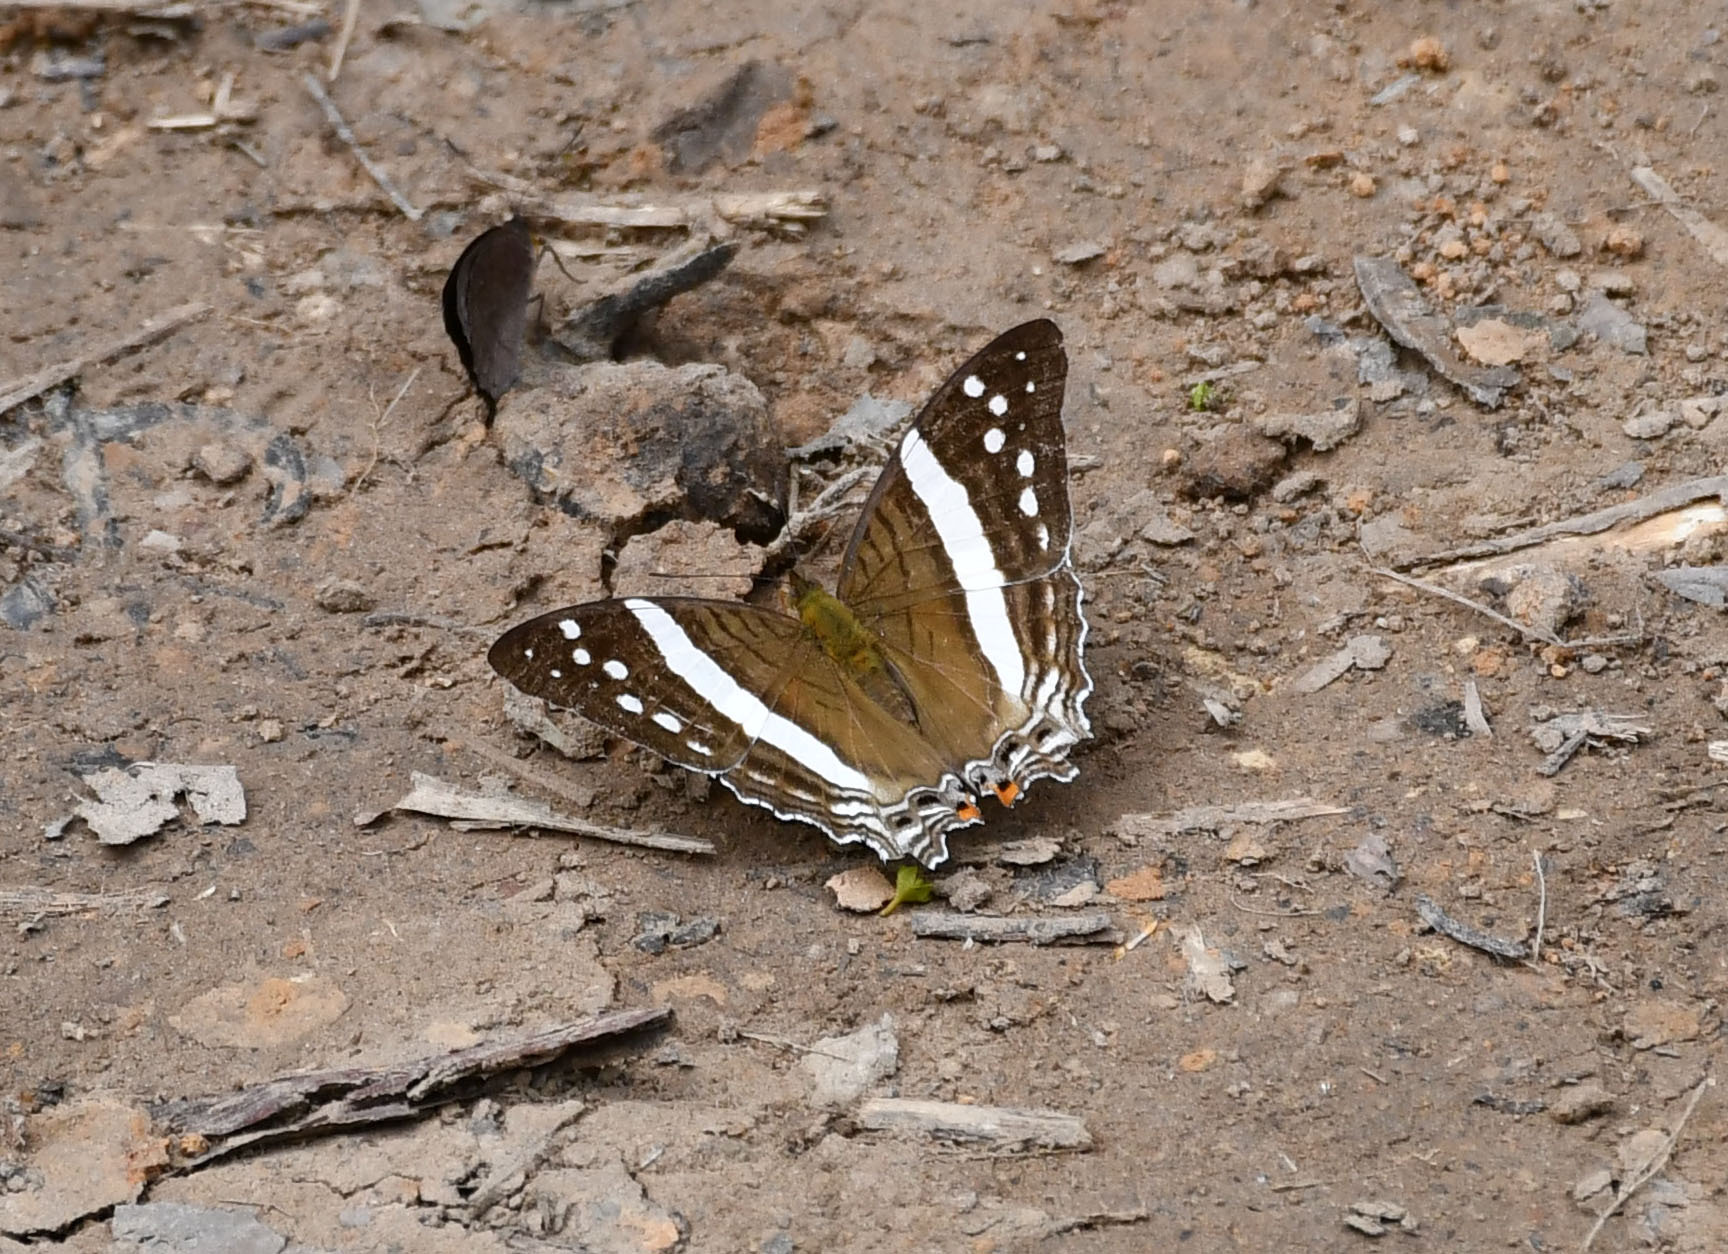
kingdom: Animalia
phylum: Arthropoda
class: Insecta
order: Lepidoptera
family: Nymphalidae
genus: Marpesia
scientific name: Marpesia crethon
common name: Crethon daggerwing
